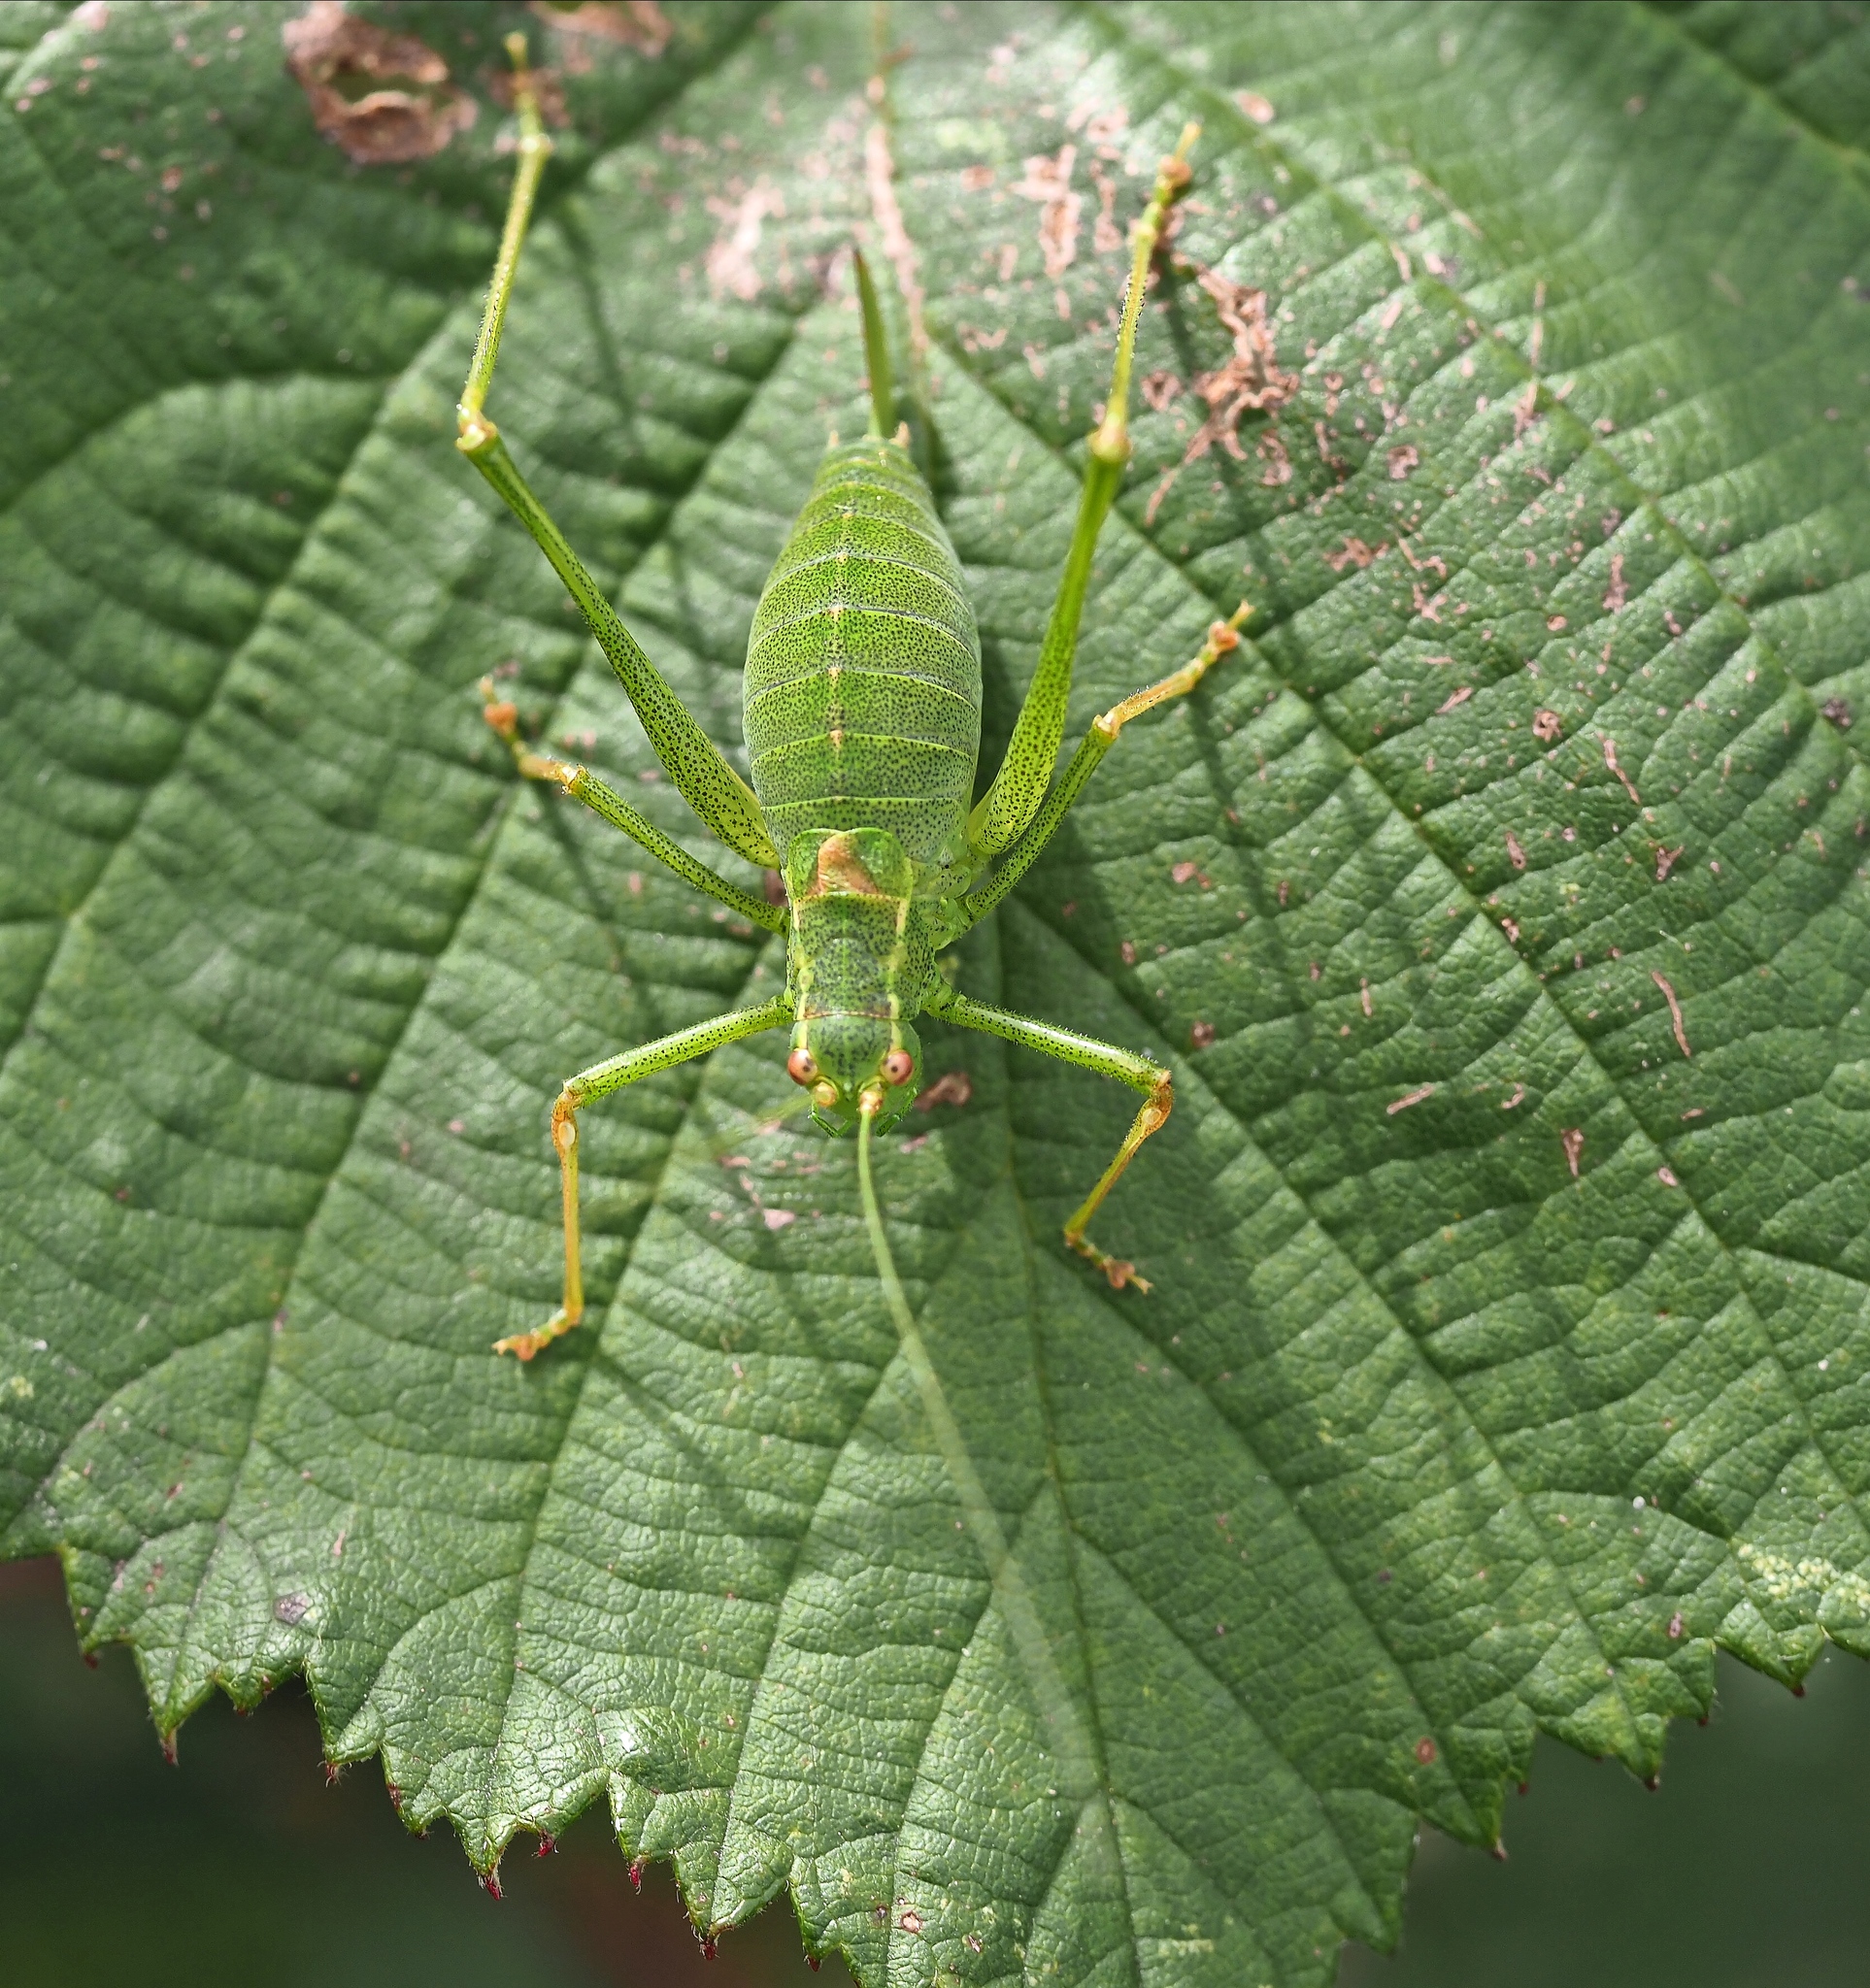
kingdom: Animalia
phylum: Arthropoda
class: Insecta
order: Orthoptera
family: Tettigoniidae
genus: Leptophyes
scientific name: Leptophyes punctatissima
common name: Speckled bush-cricket
